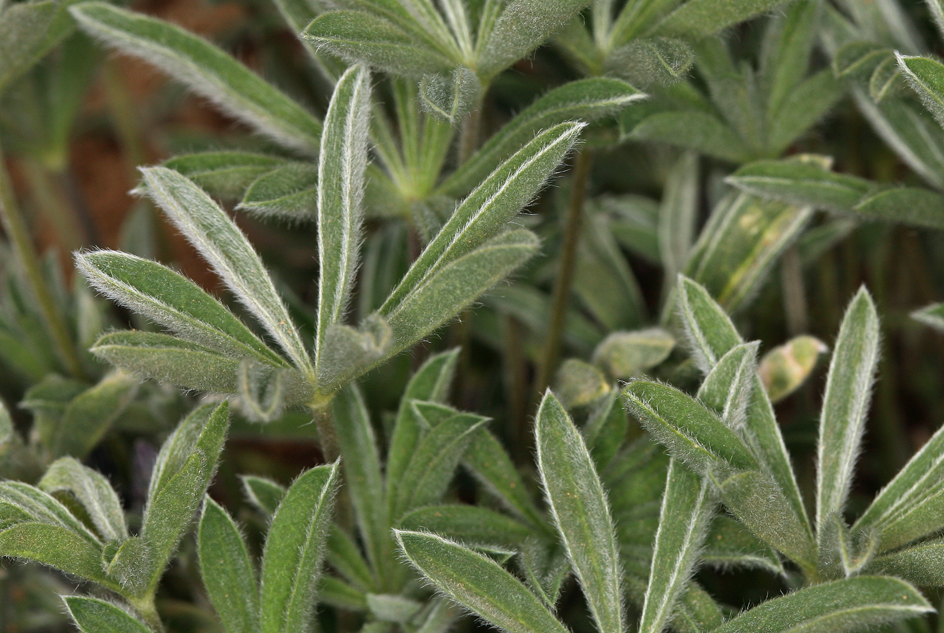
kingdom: Plantae
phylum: Tracheophyta
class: Magnoliopsida
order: Fabales
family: Fabaceae
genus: Lupinus
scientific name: Lupinus nevadensis
